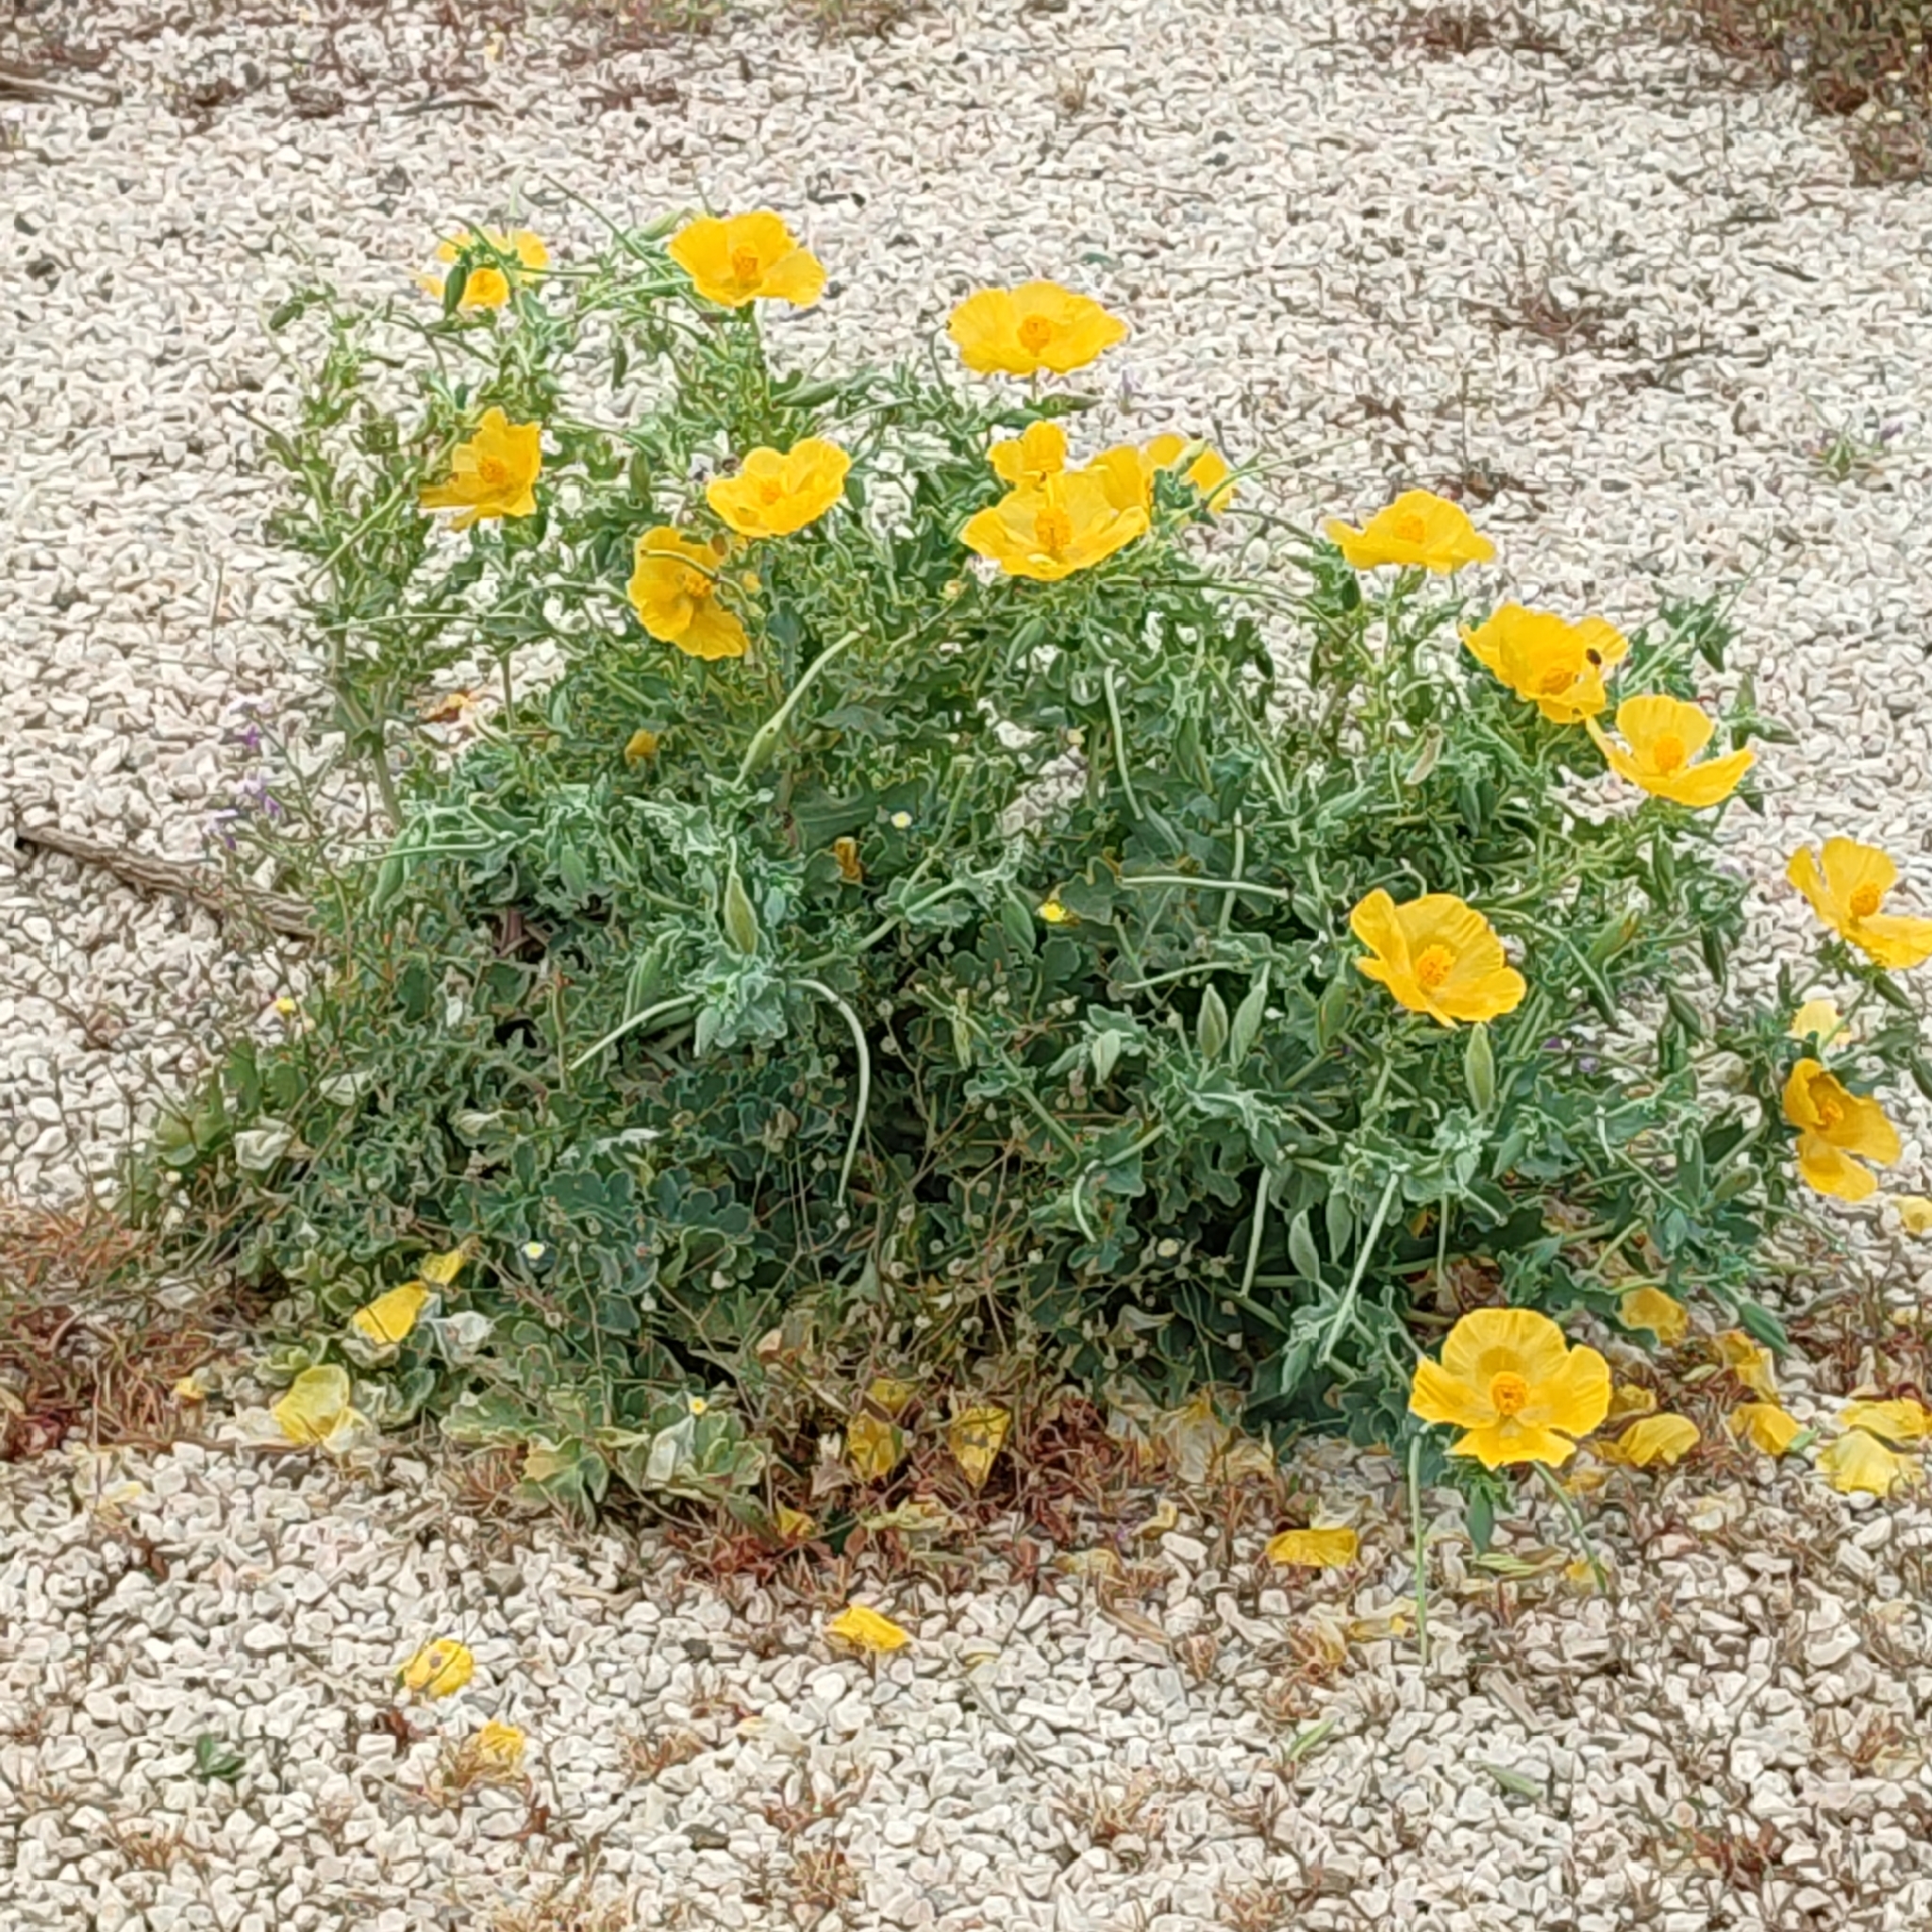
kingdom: Plantae
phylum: Tracheophyta
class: Magnoliopsida
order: Ranunculales
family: Papaveraceae
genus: Glaucium
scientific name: Glaucium flavum
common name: Yellow horned-poppy
